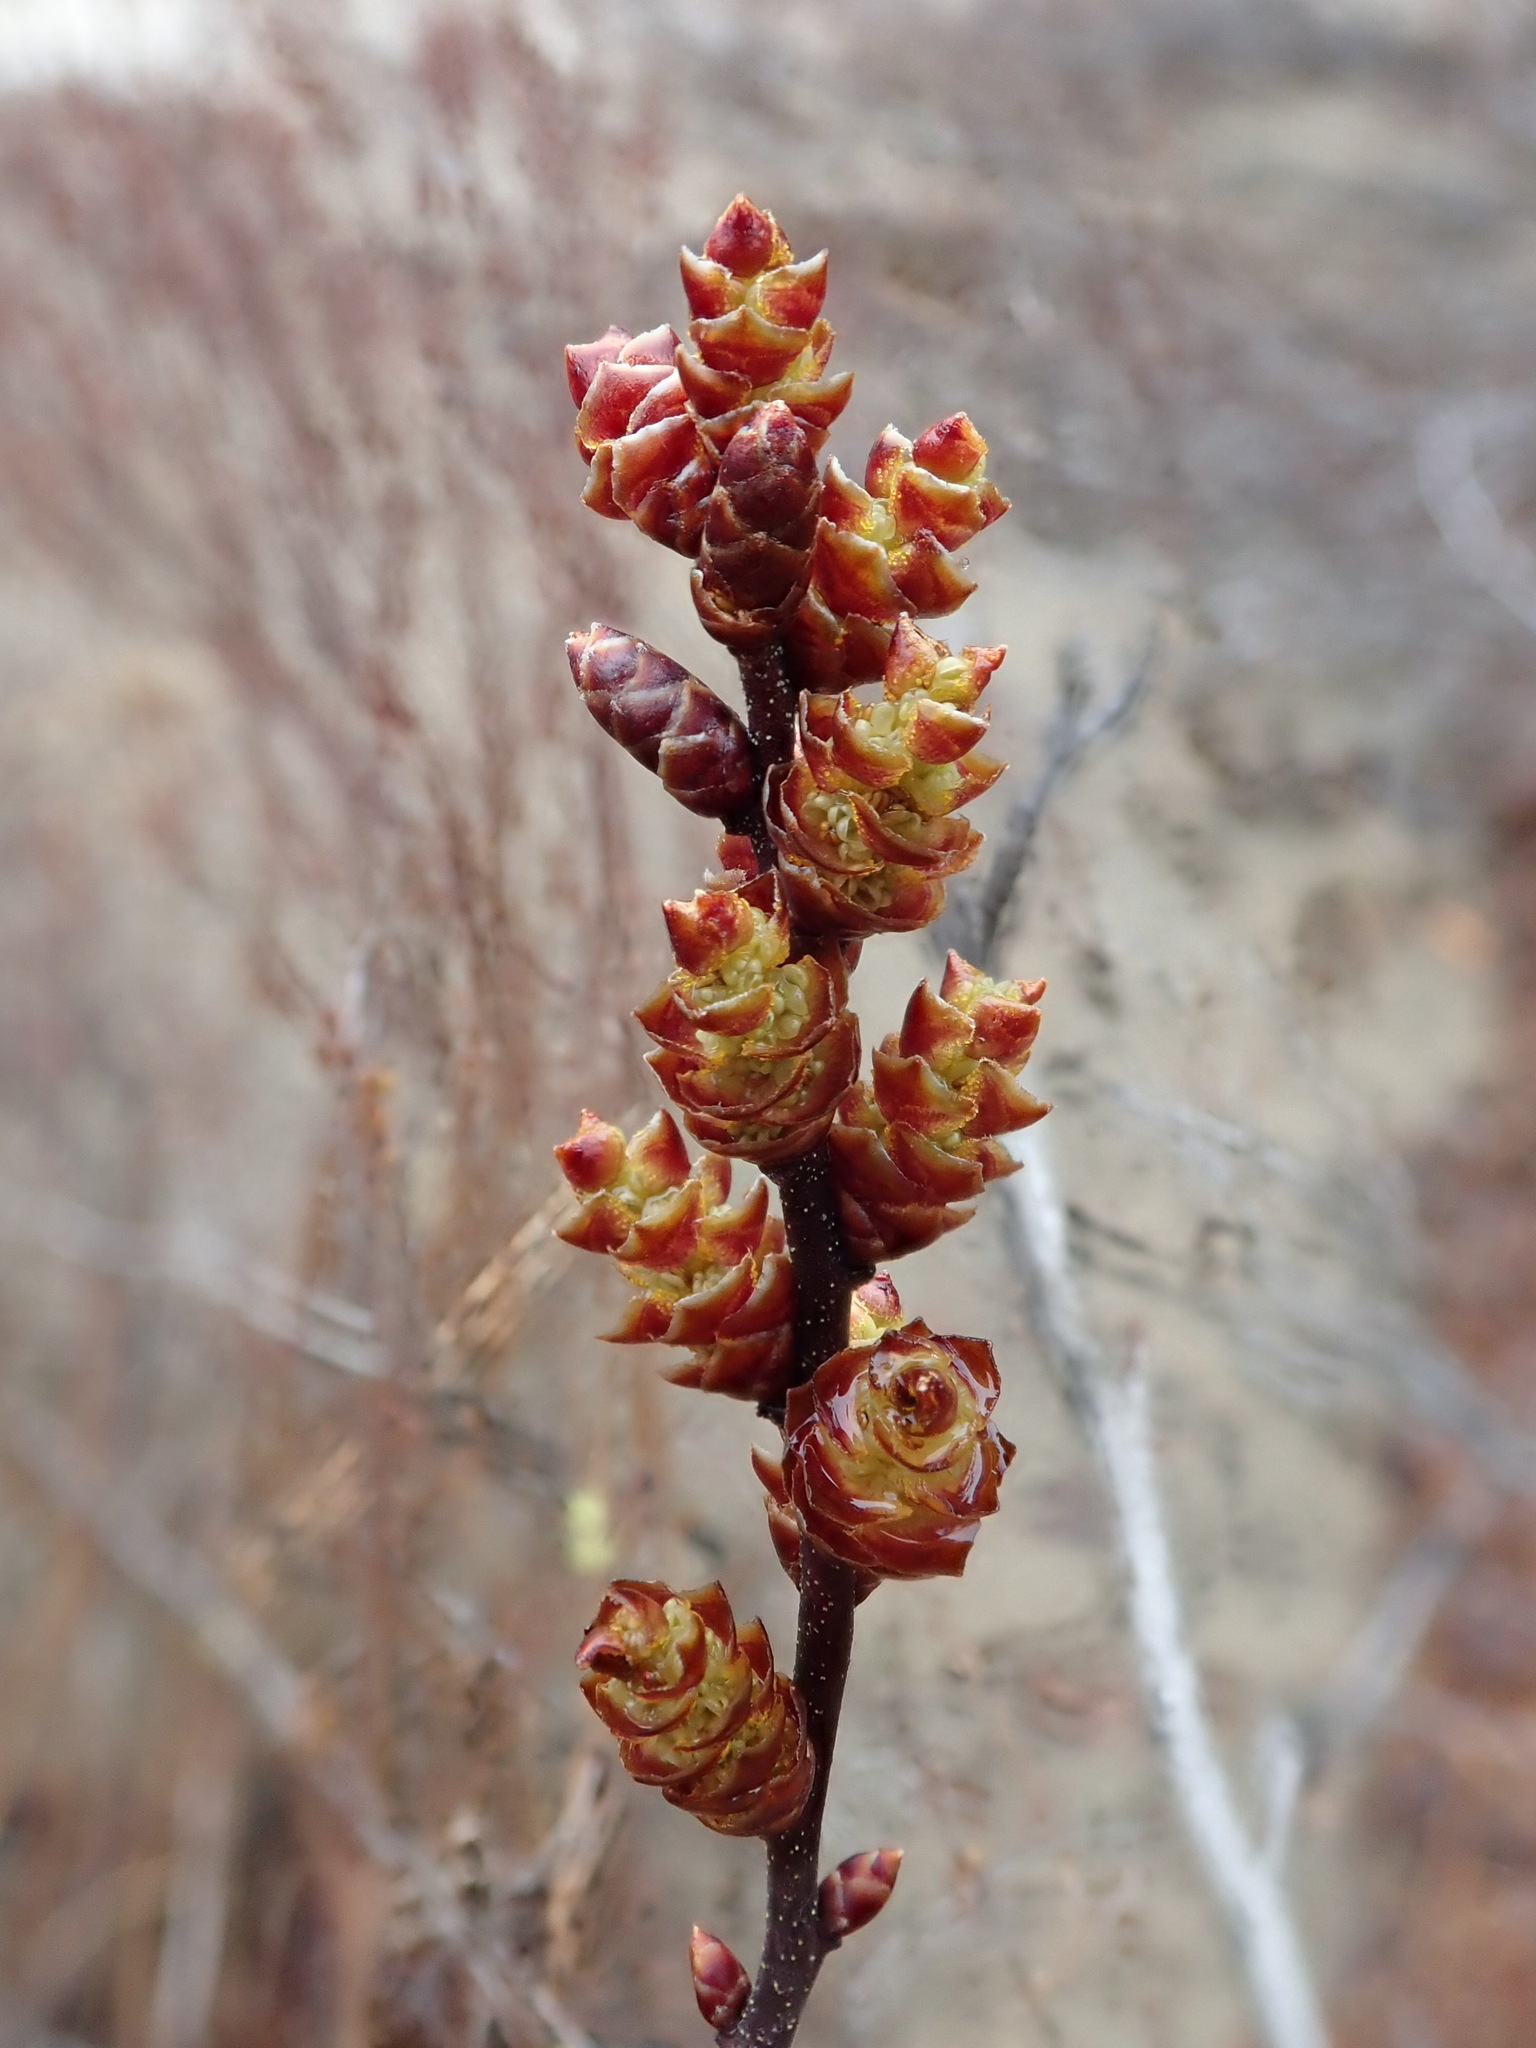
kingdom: Plantae
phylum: Tracheophyta
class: Magnoliopsida
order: Fagales
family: Myricaceae
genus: Myrica
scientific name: Myrica gale
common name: Sweet gale
